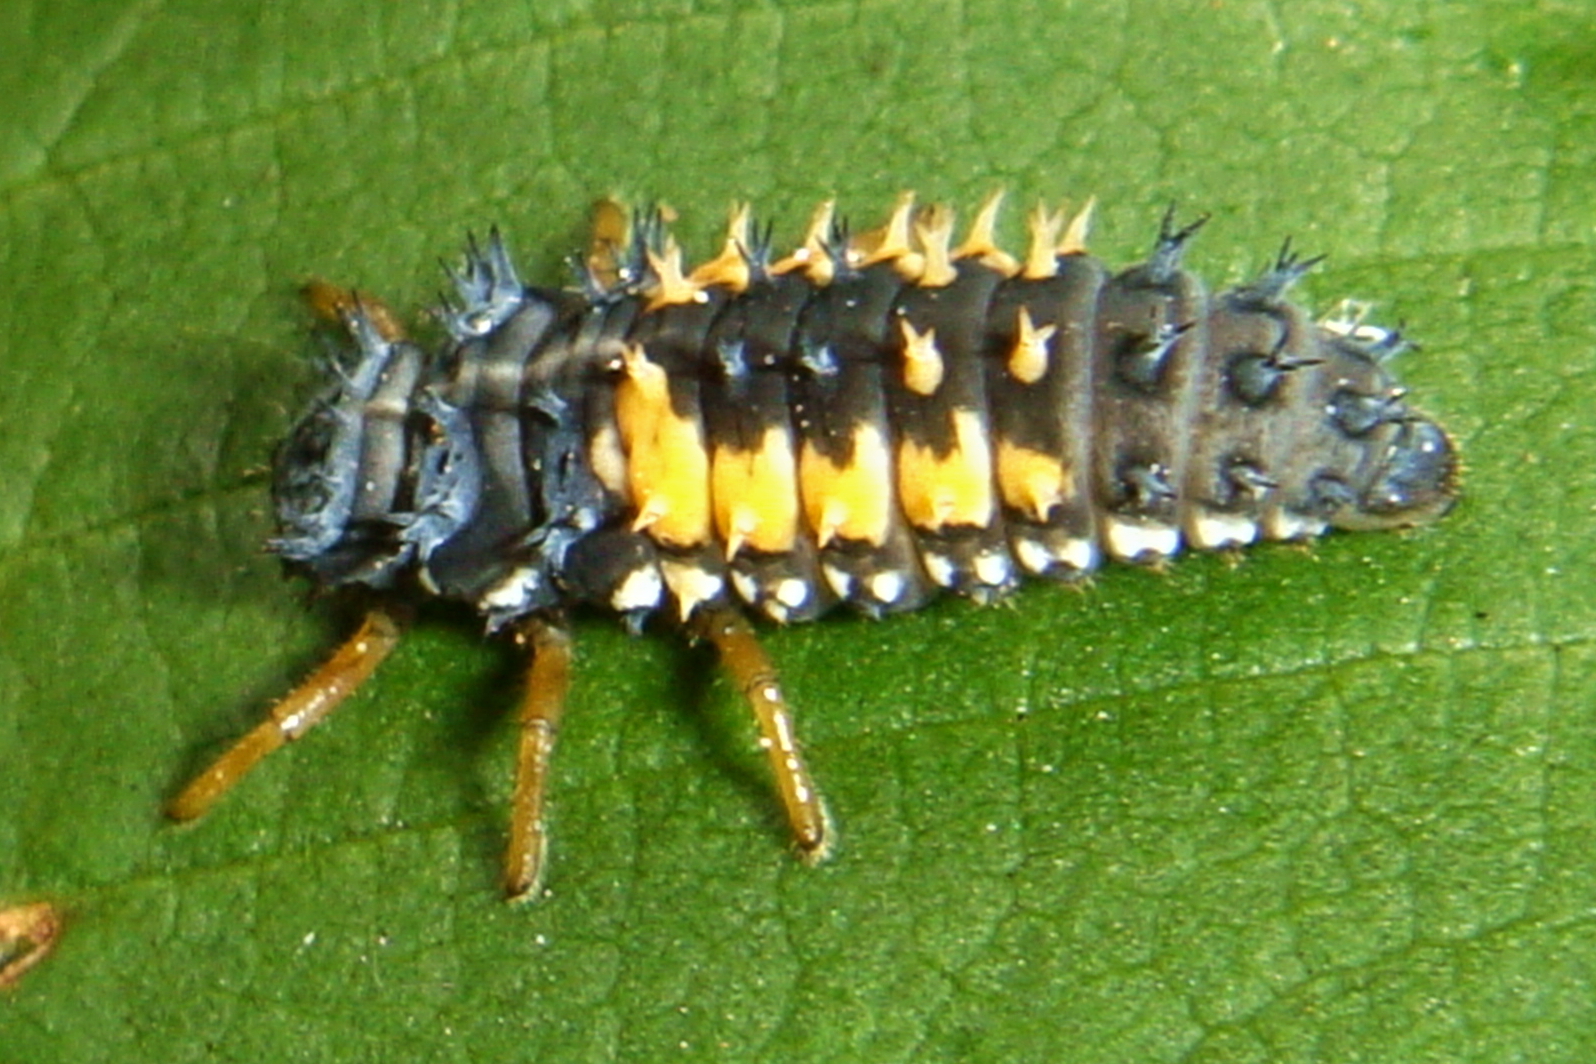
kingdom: Animalia
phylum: Arthropoda
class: Insecta
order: Coleoptera
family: Coccinellidae
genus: Harmonia
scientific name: Harmonia axyridis
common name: Harlequin ladybird
